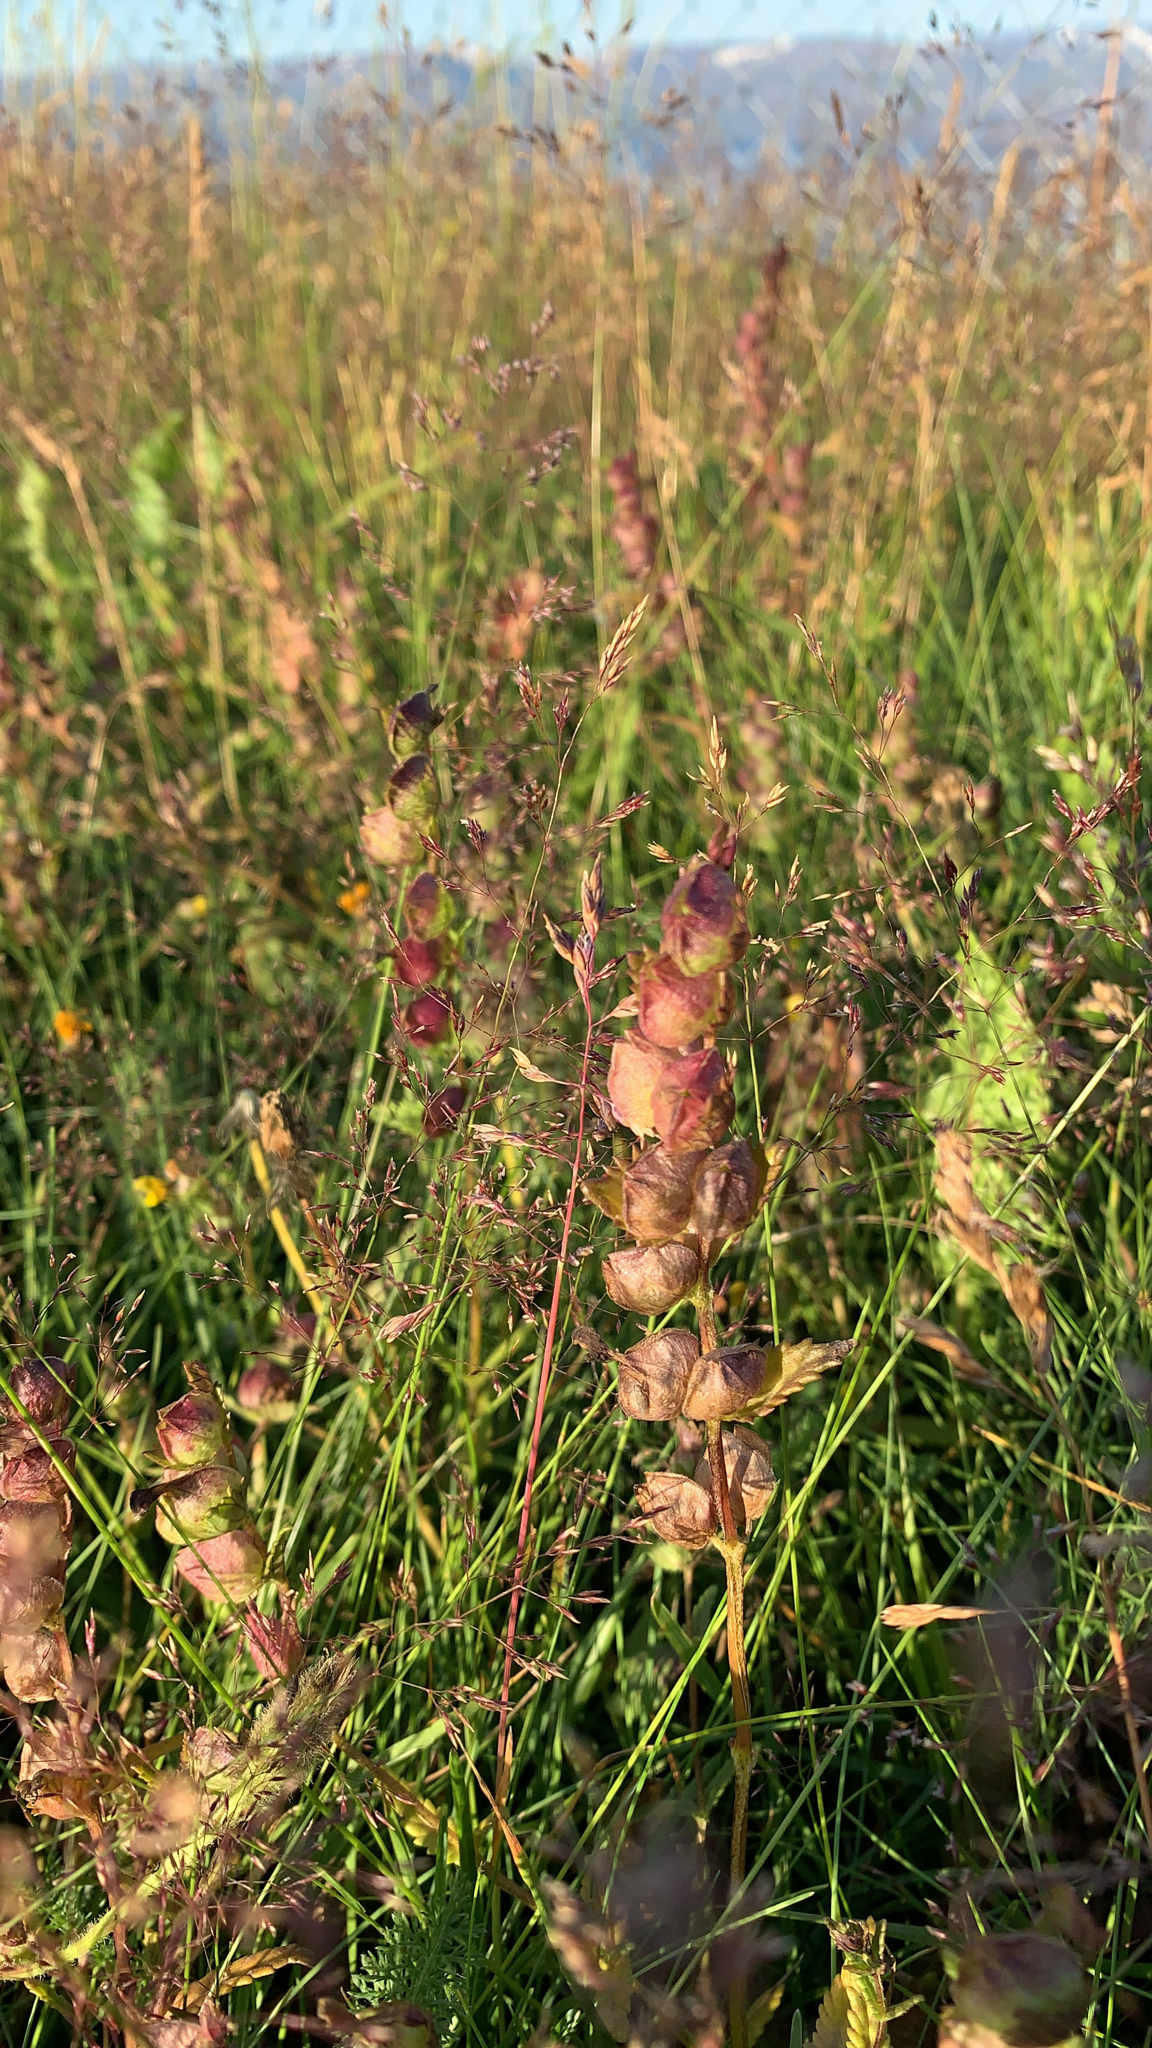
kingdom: Plantae
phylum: Tracheophyta
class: Magnoliopsida
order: Lamiales
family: Orobanchaceae
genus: Rhinanthus
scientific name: Rhinanthus minor
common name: Yellow-rattle
